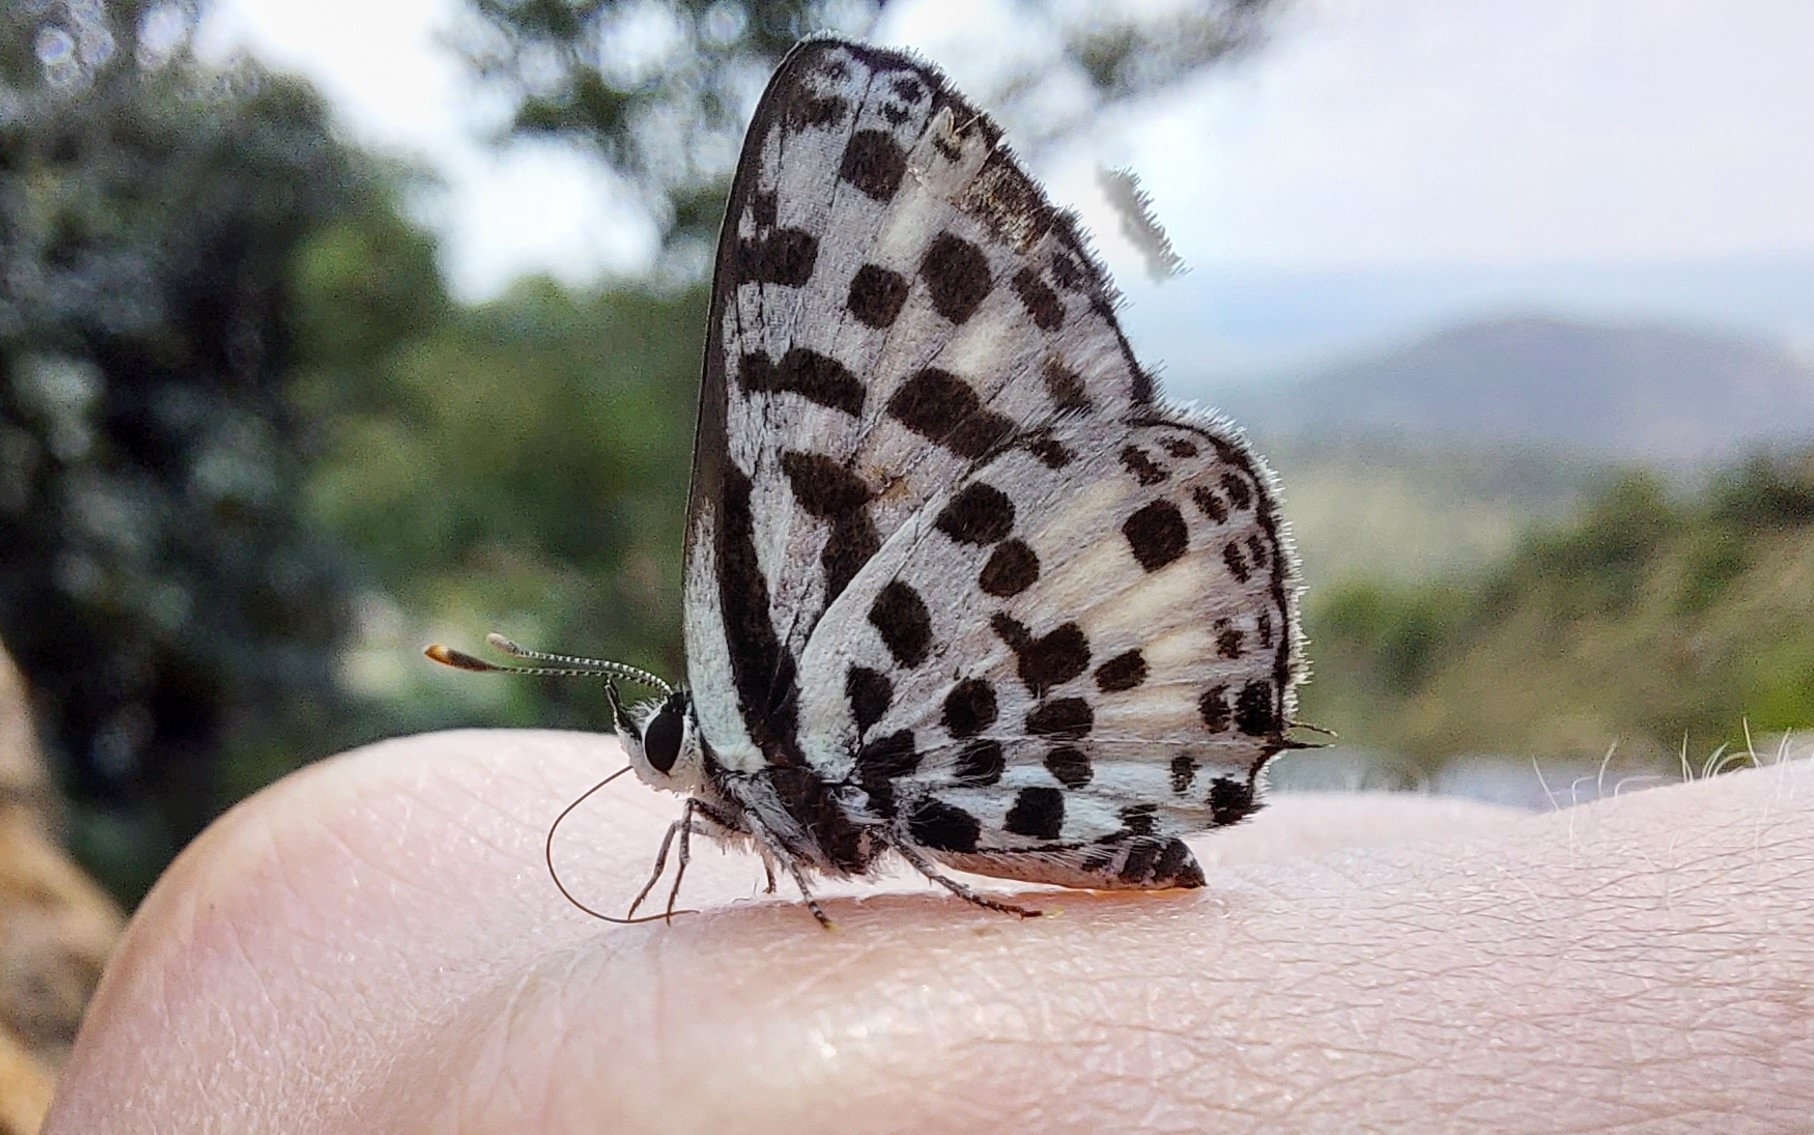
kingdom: Animalia
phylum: Arthropoda
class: Insecta
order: Lepidoptera
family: Lycaenidae
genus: Zintha
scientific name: Zintha hintza
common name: Hintza pierrot
